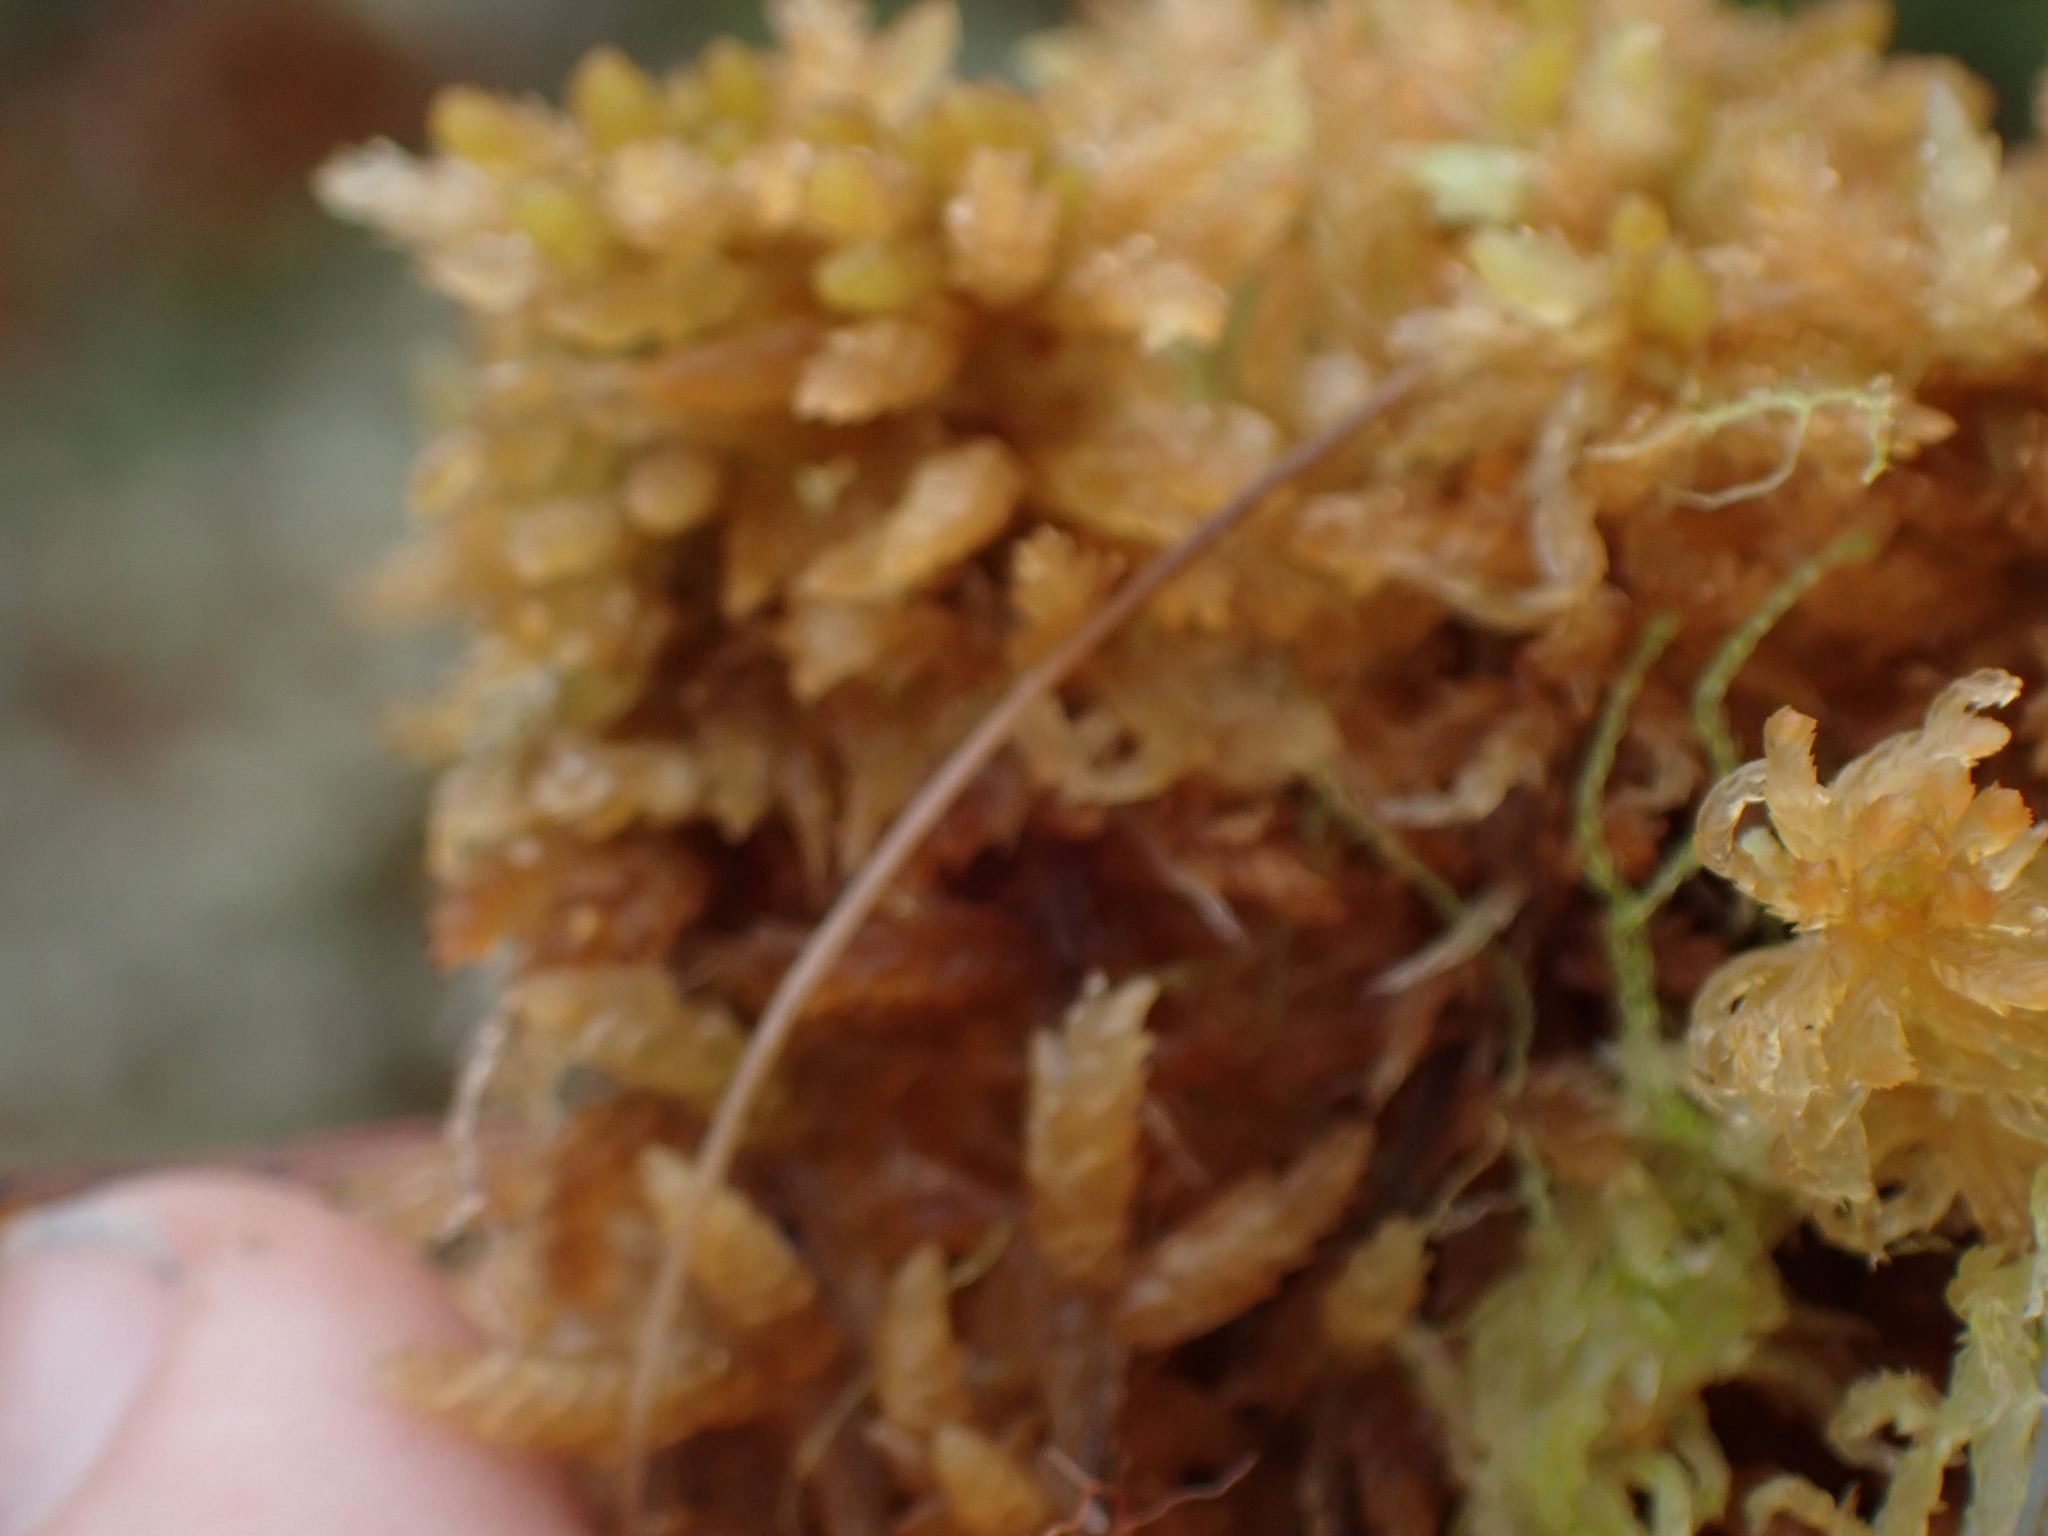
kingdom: Plantae
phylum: Bryophyta
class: Sphagnopsida
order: Sphagnales
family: Sphagnaceae
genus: Sphagnum
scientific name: Sphagnum papillosum
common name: Papillose peat moss
